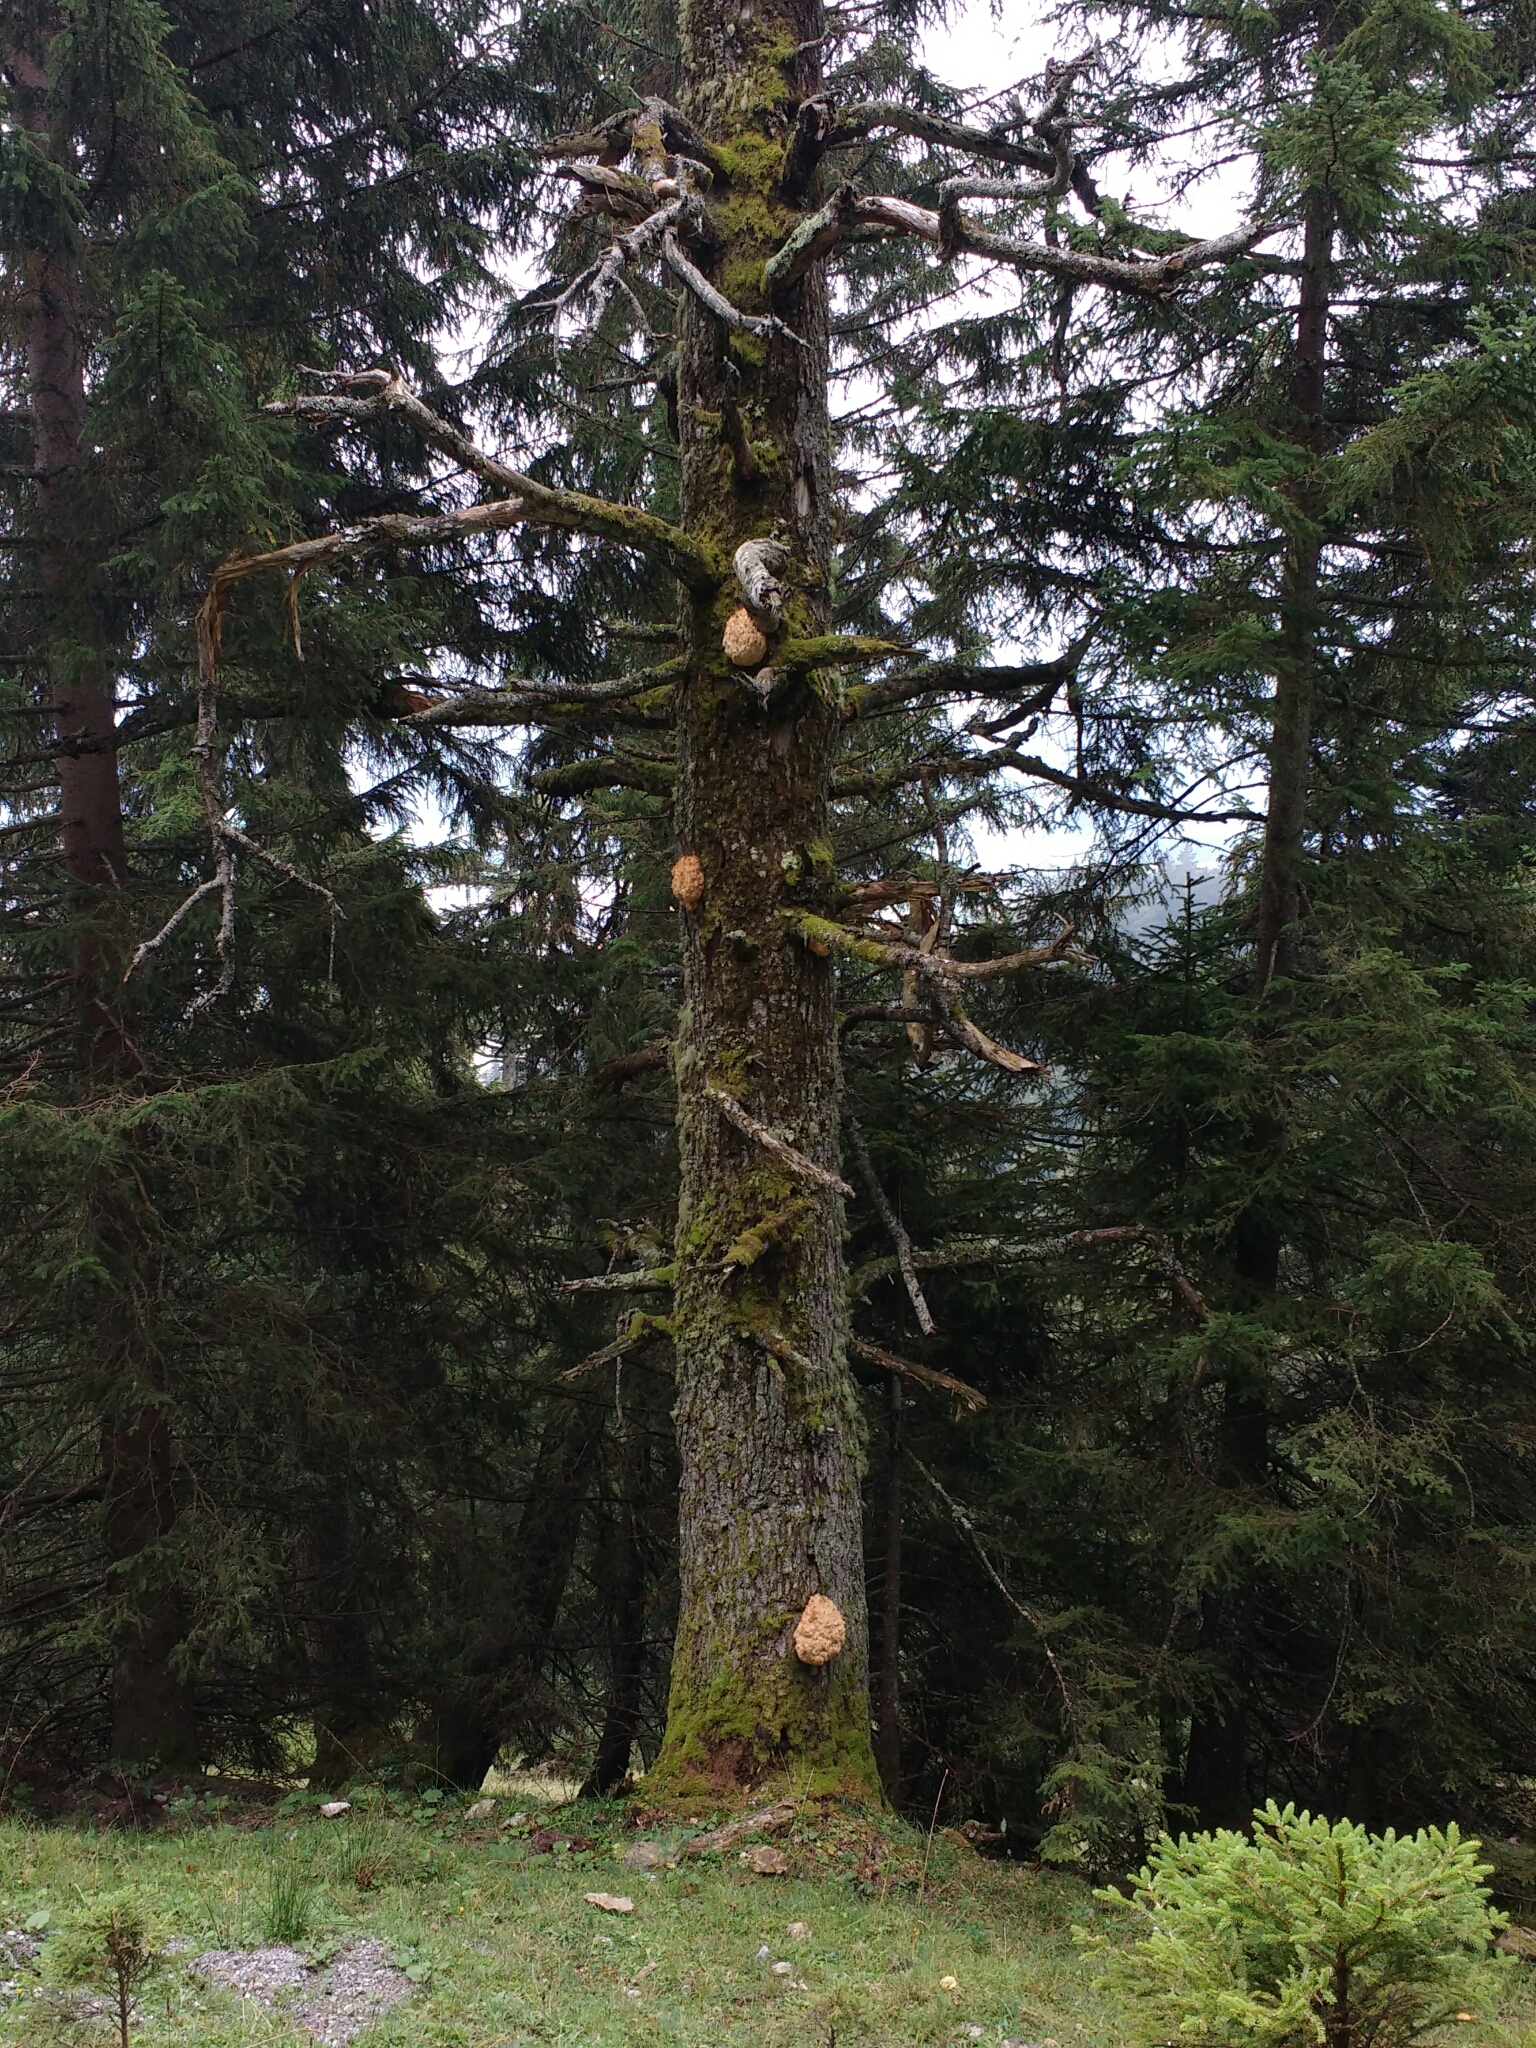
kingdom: Fungi
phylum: Basidiomycota
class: Agaricomycetes
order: Russulales
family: Hericiaceae
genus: Hericium
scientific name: Hericium flagellum
